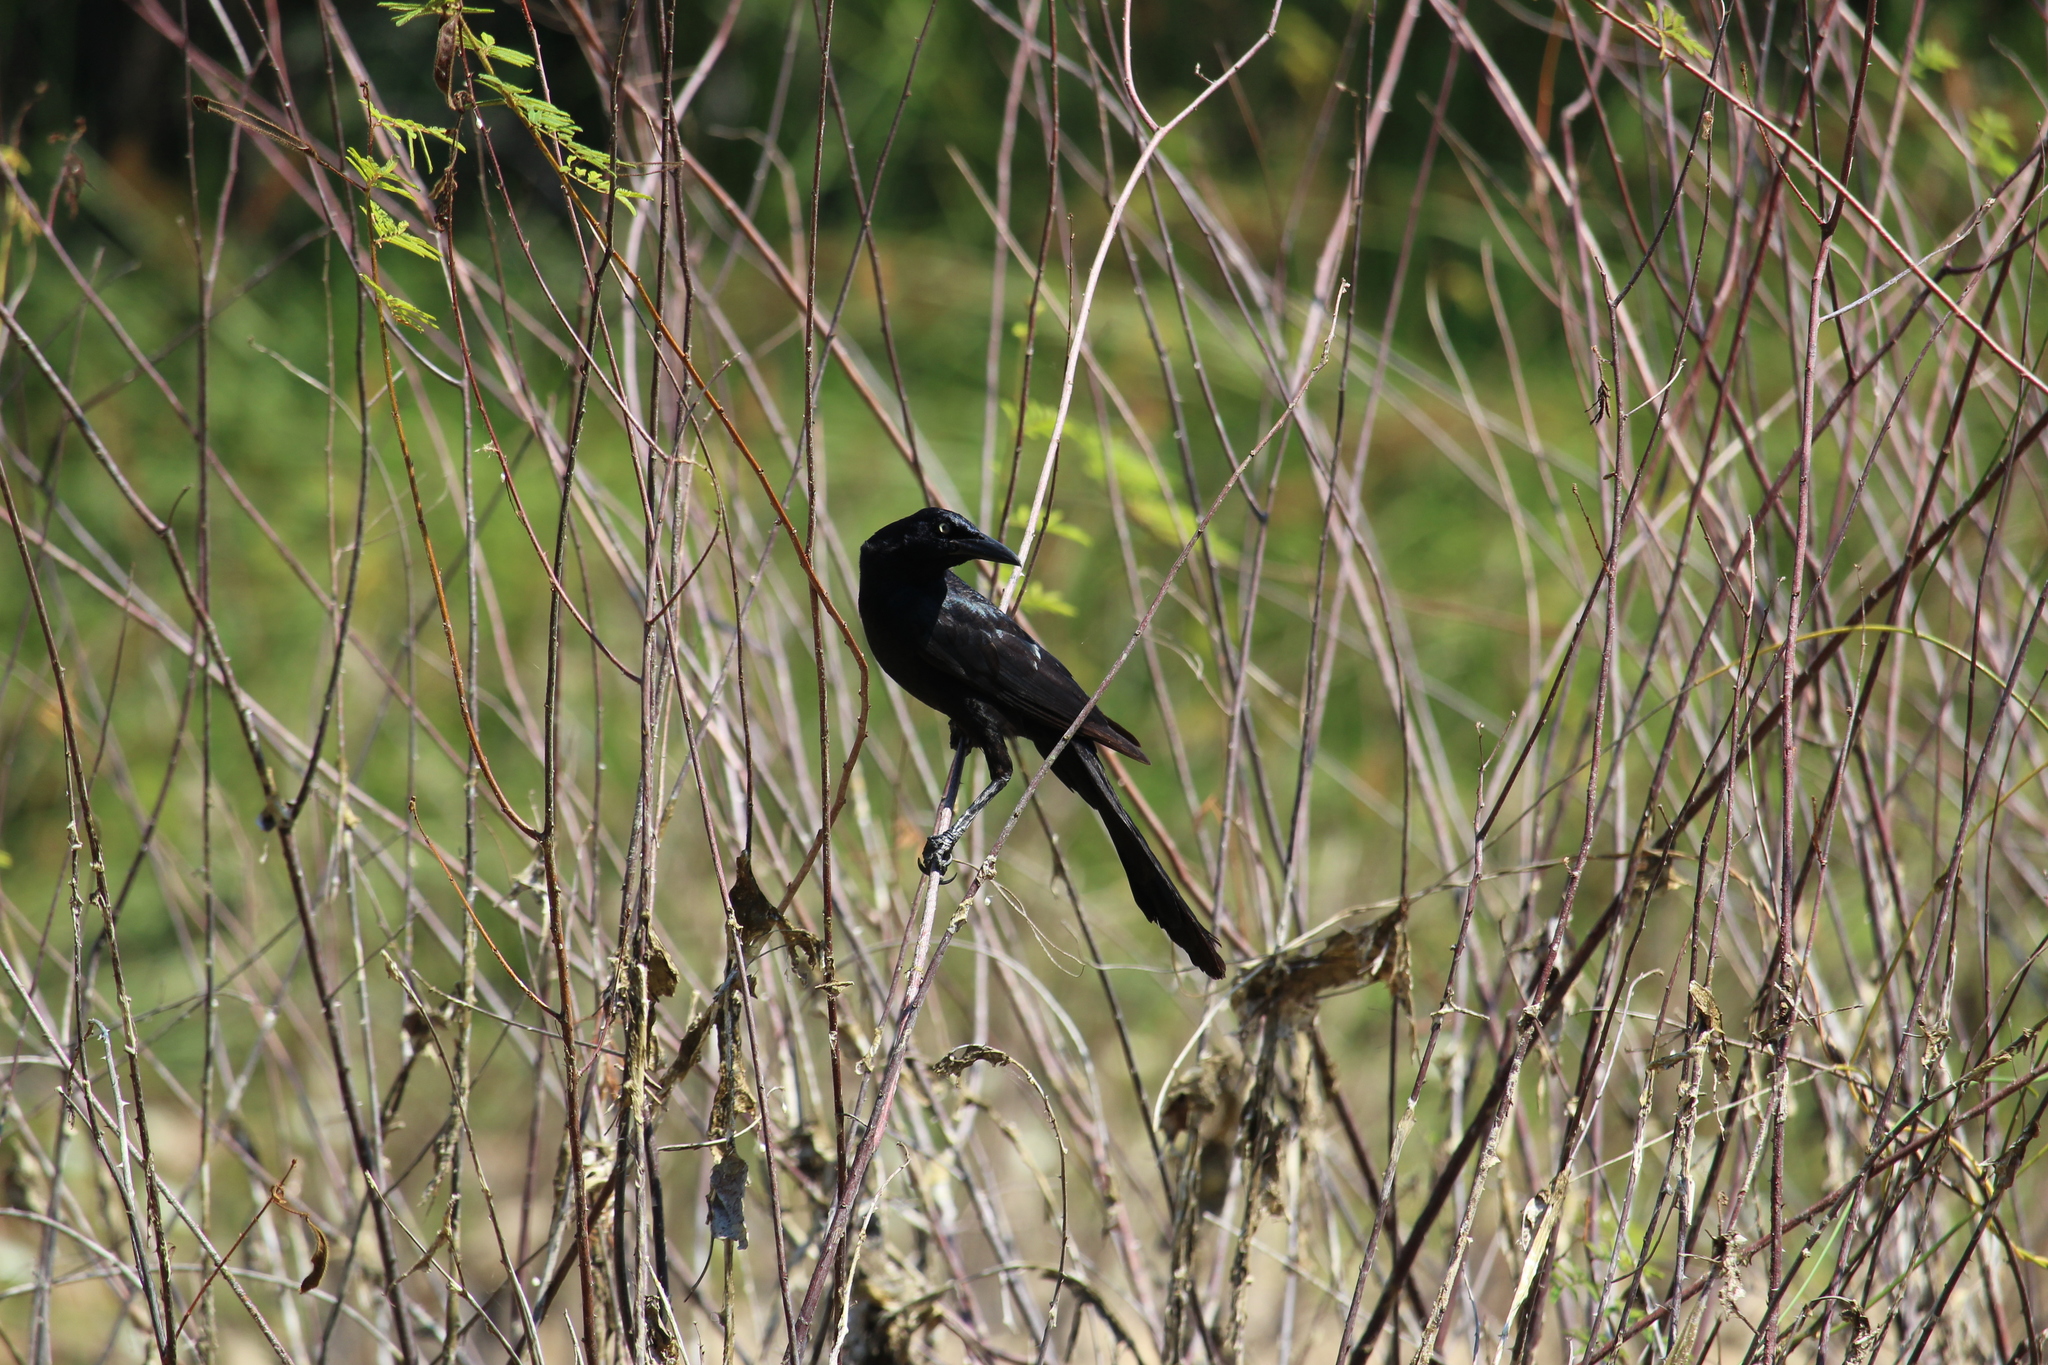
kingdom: Animalia
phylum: Chordata
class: Aves
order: Passeriformes
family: Icteridae
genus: Quiscalus
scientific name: Quiscalus mexicanus
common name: Great-tailed grackle
